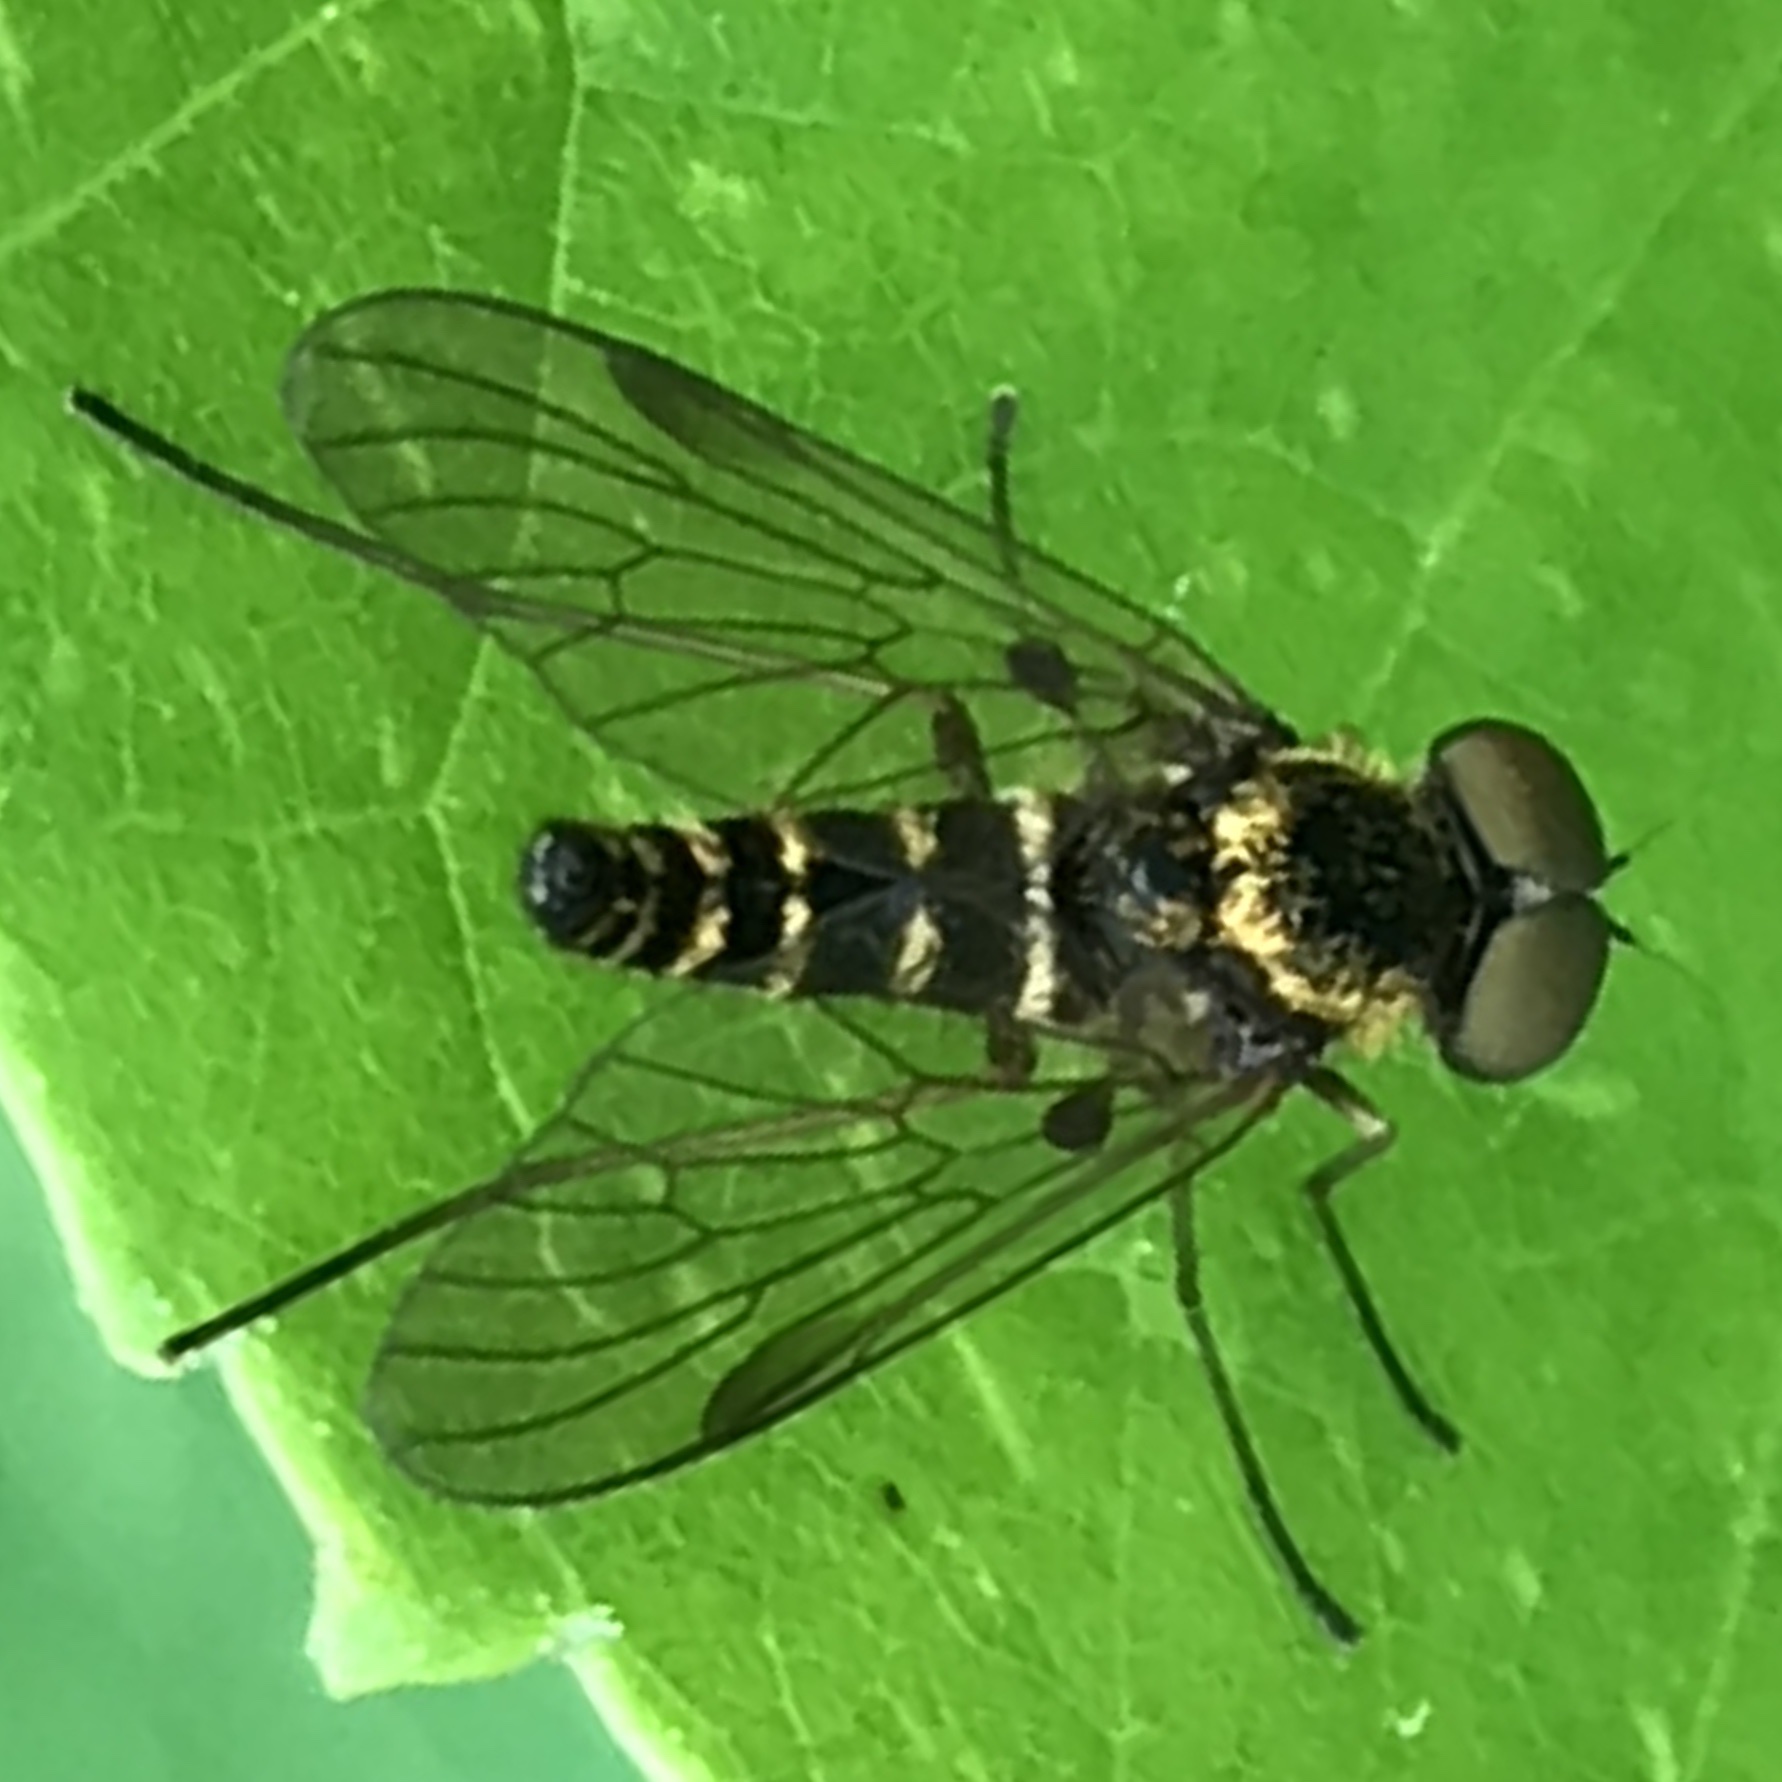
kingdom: Animalia
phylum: Arthropoda
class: Insecta
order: Diptera
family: Rhagionidae
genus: Chrysopilus
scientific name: Chrysopilus fasciatus
